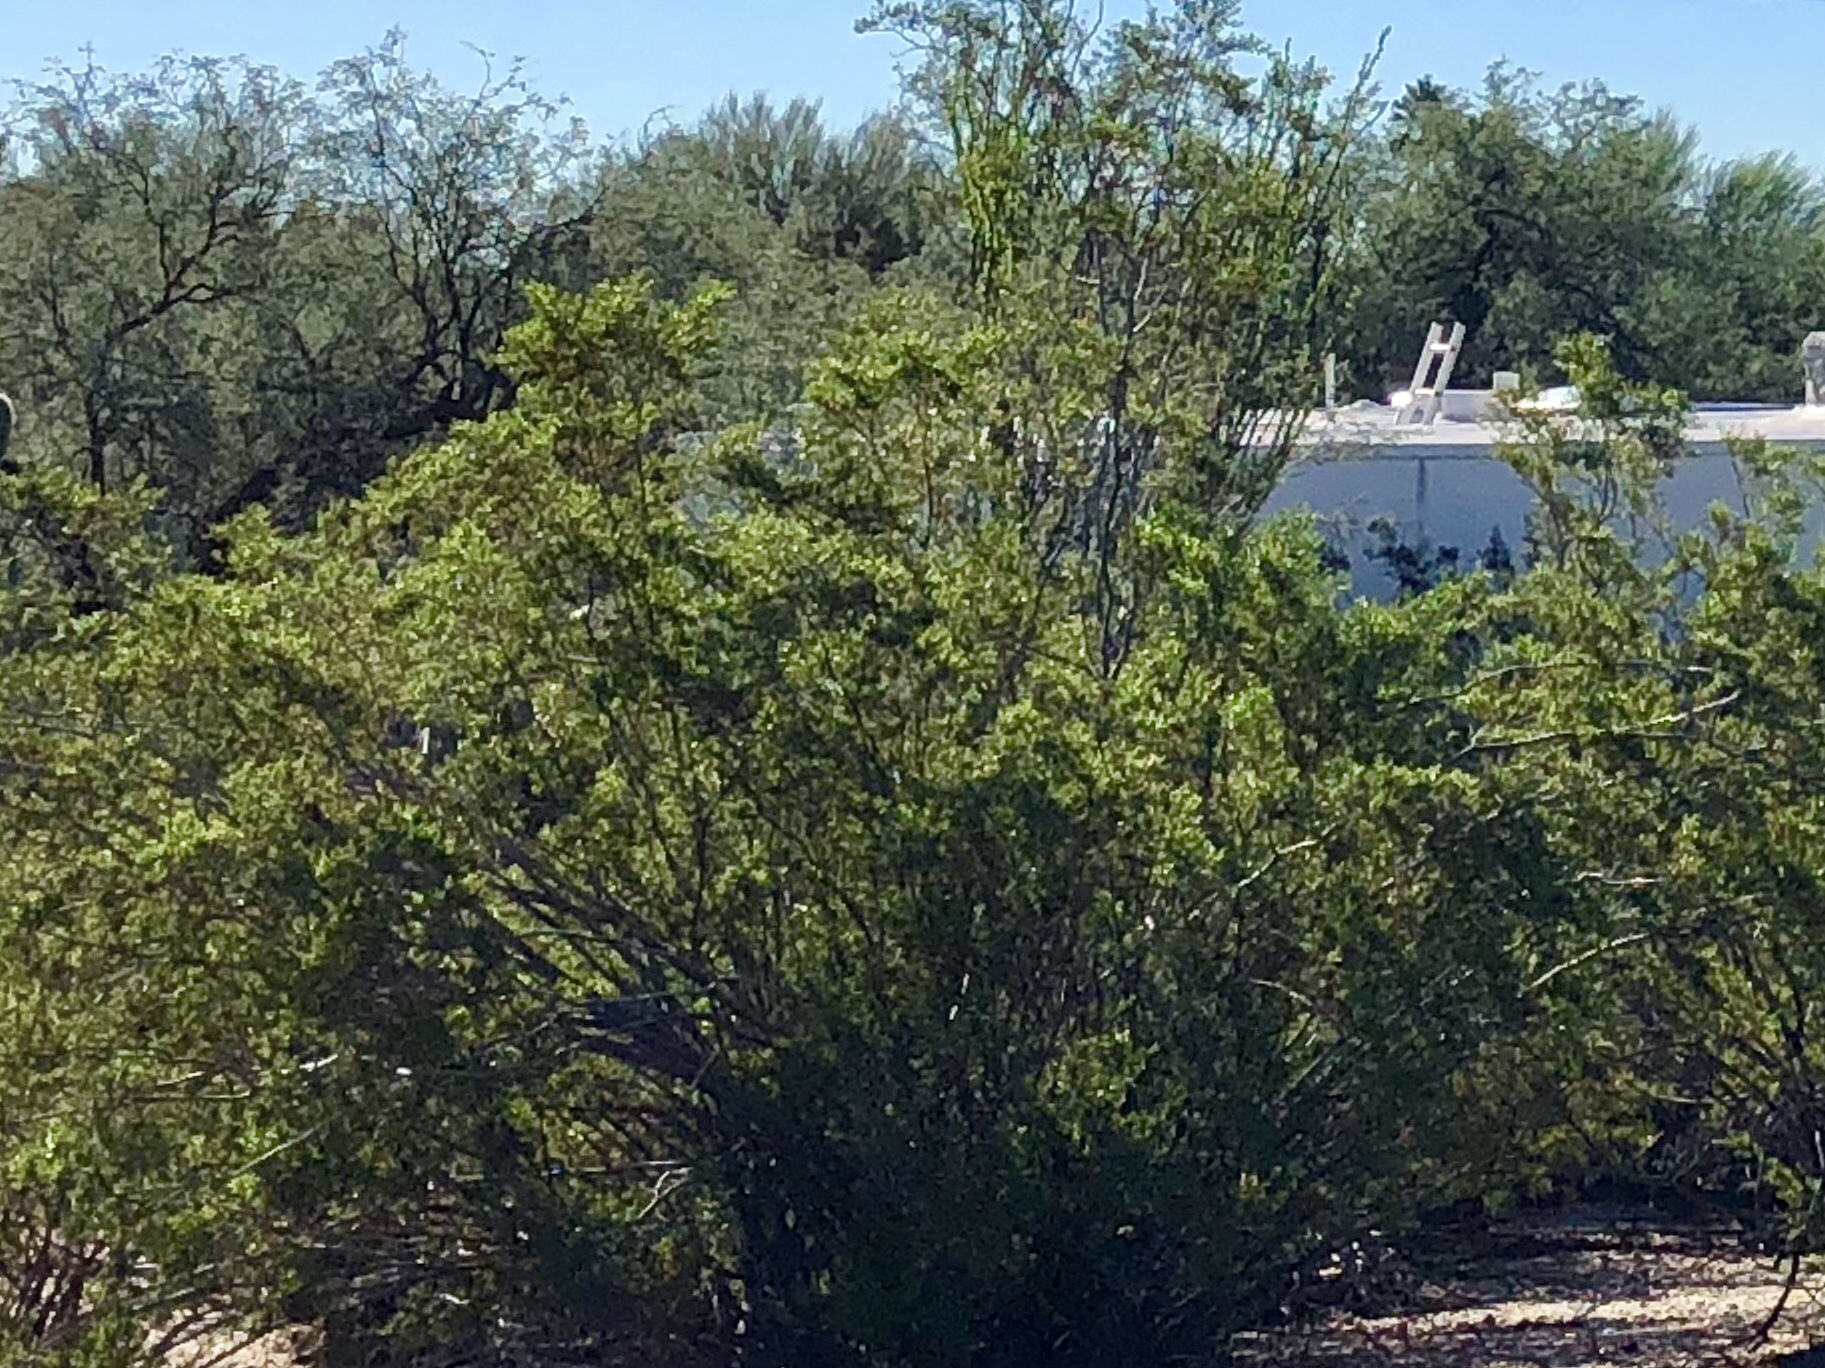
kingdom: Plantae
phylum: Tracheophyta
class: Magnoliopsida
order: Zygophyllales
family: Zygophyllaceae
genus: Larrea
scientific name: Larrea tridentata
